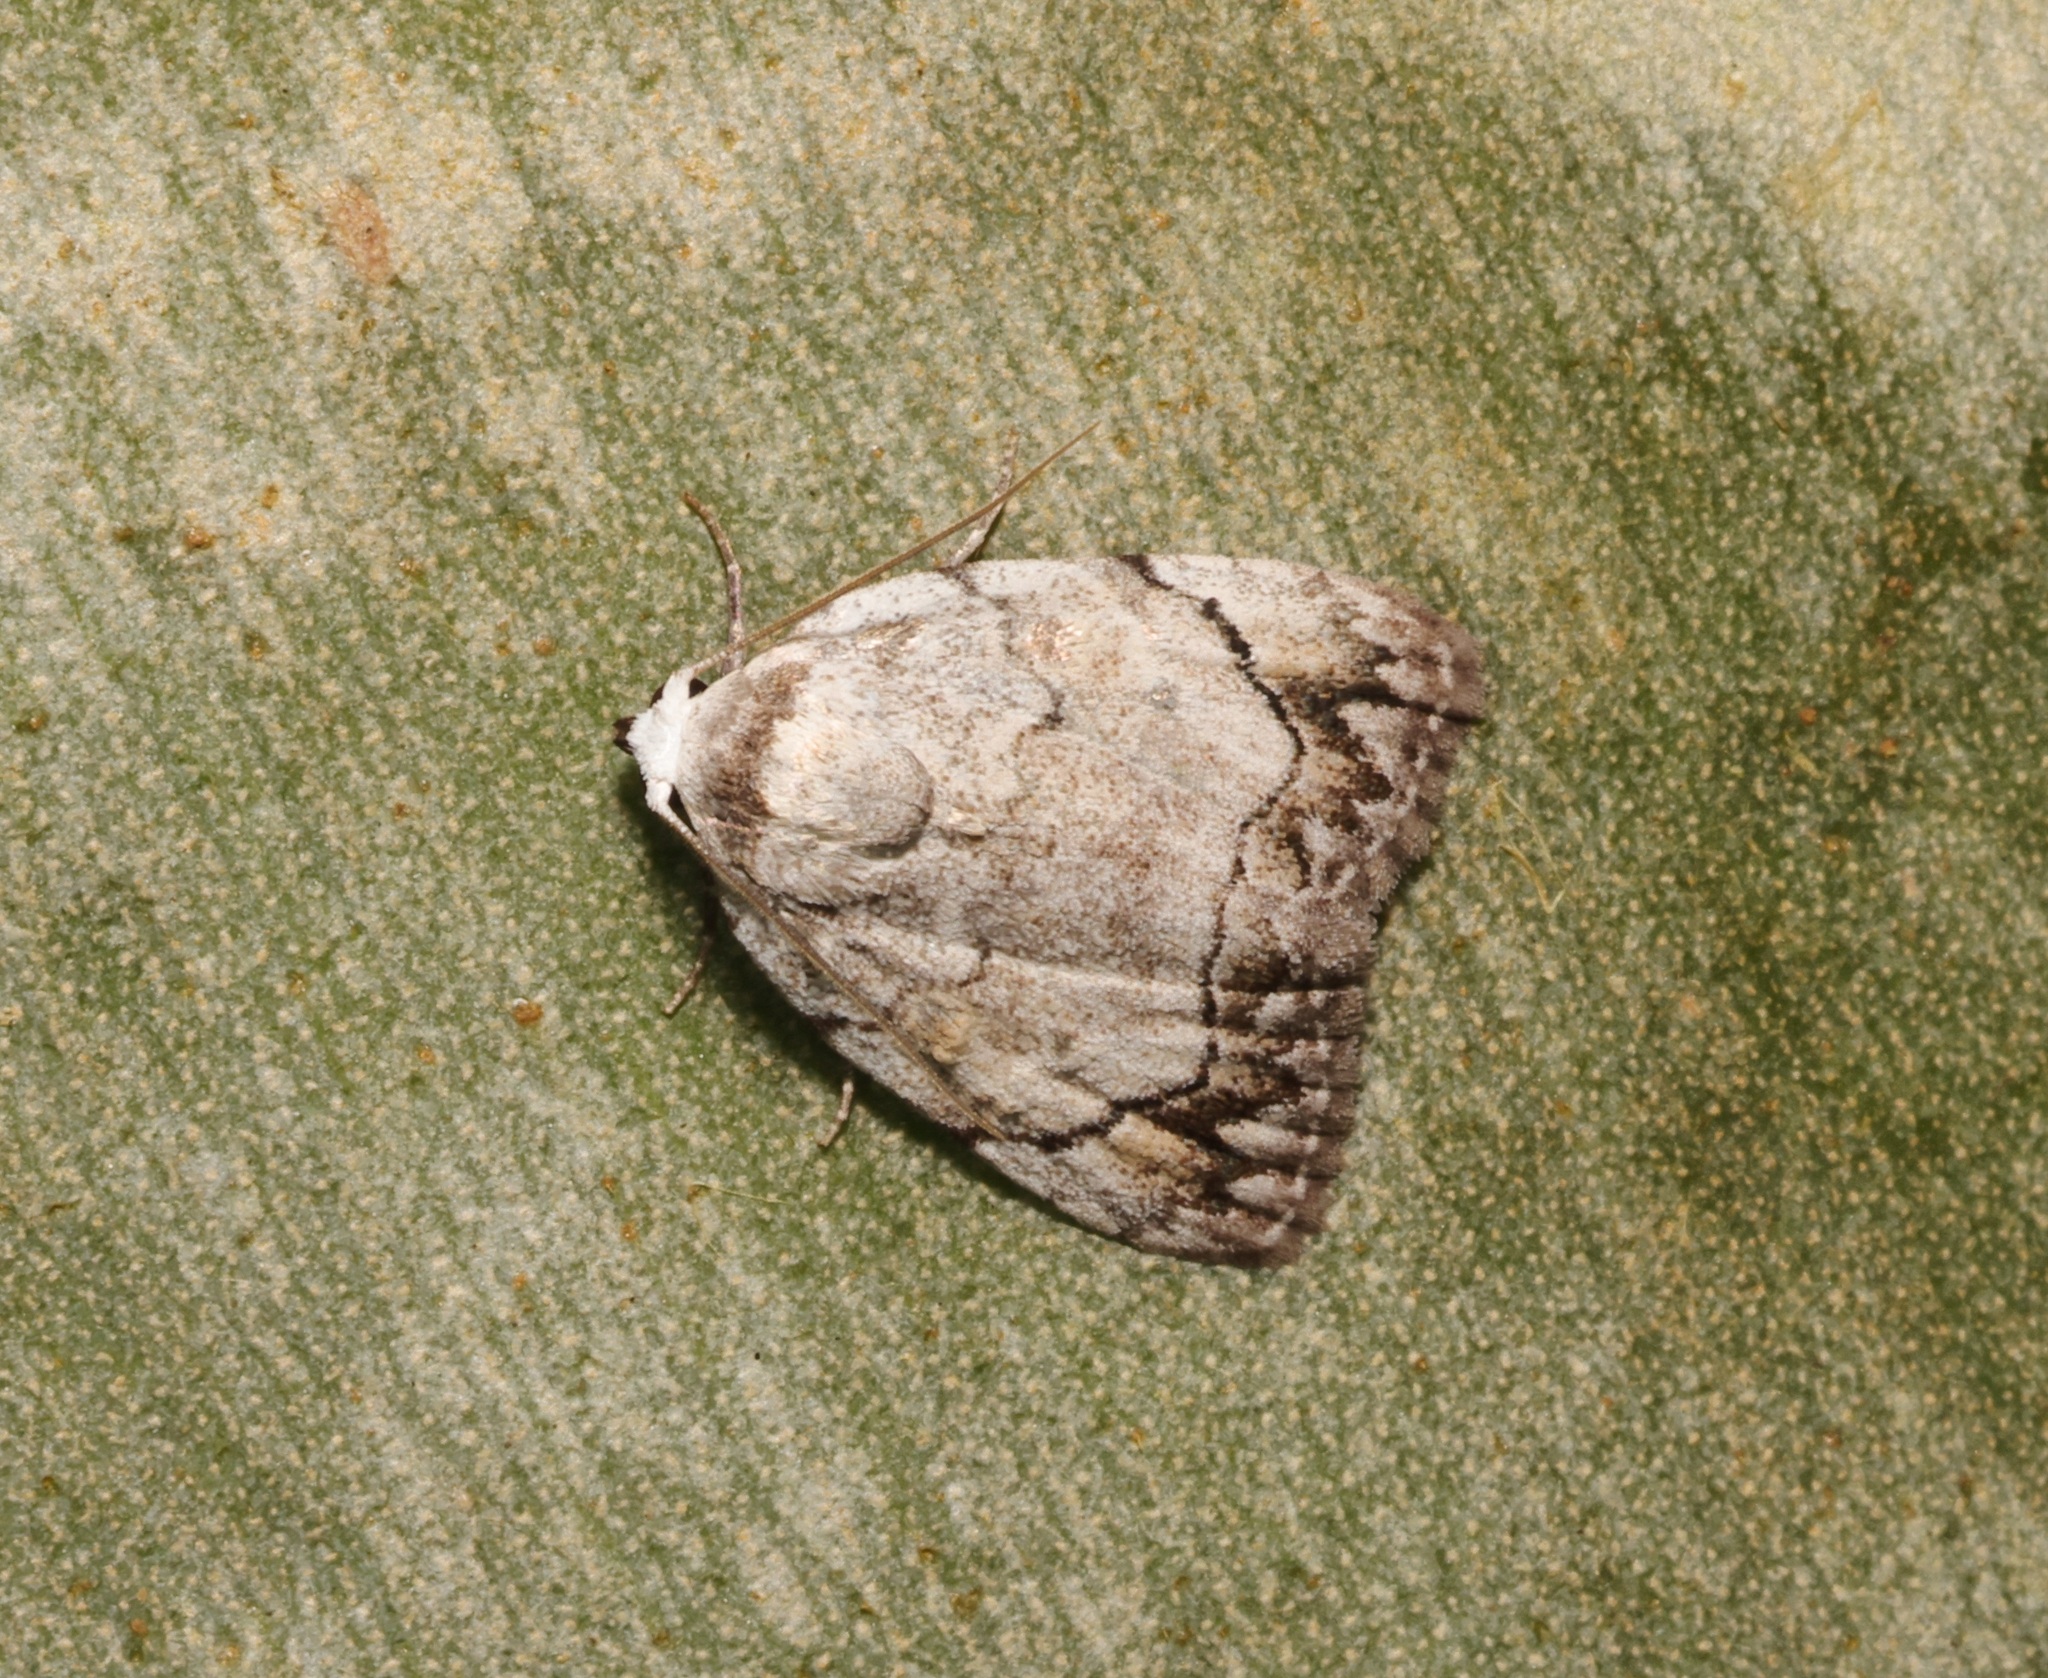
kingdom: Animalia
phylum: Arthropoda
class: Insecta
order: Lepidoptera
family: Nolidae
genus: Melanographia
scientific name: Melanographia flexilineata
